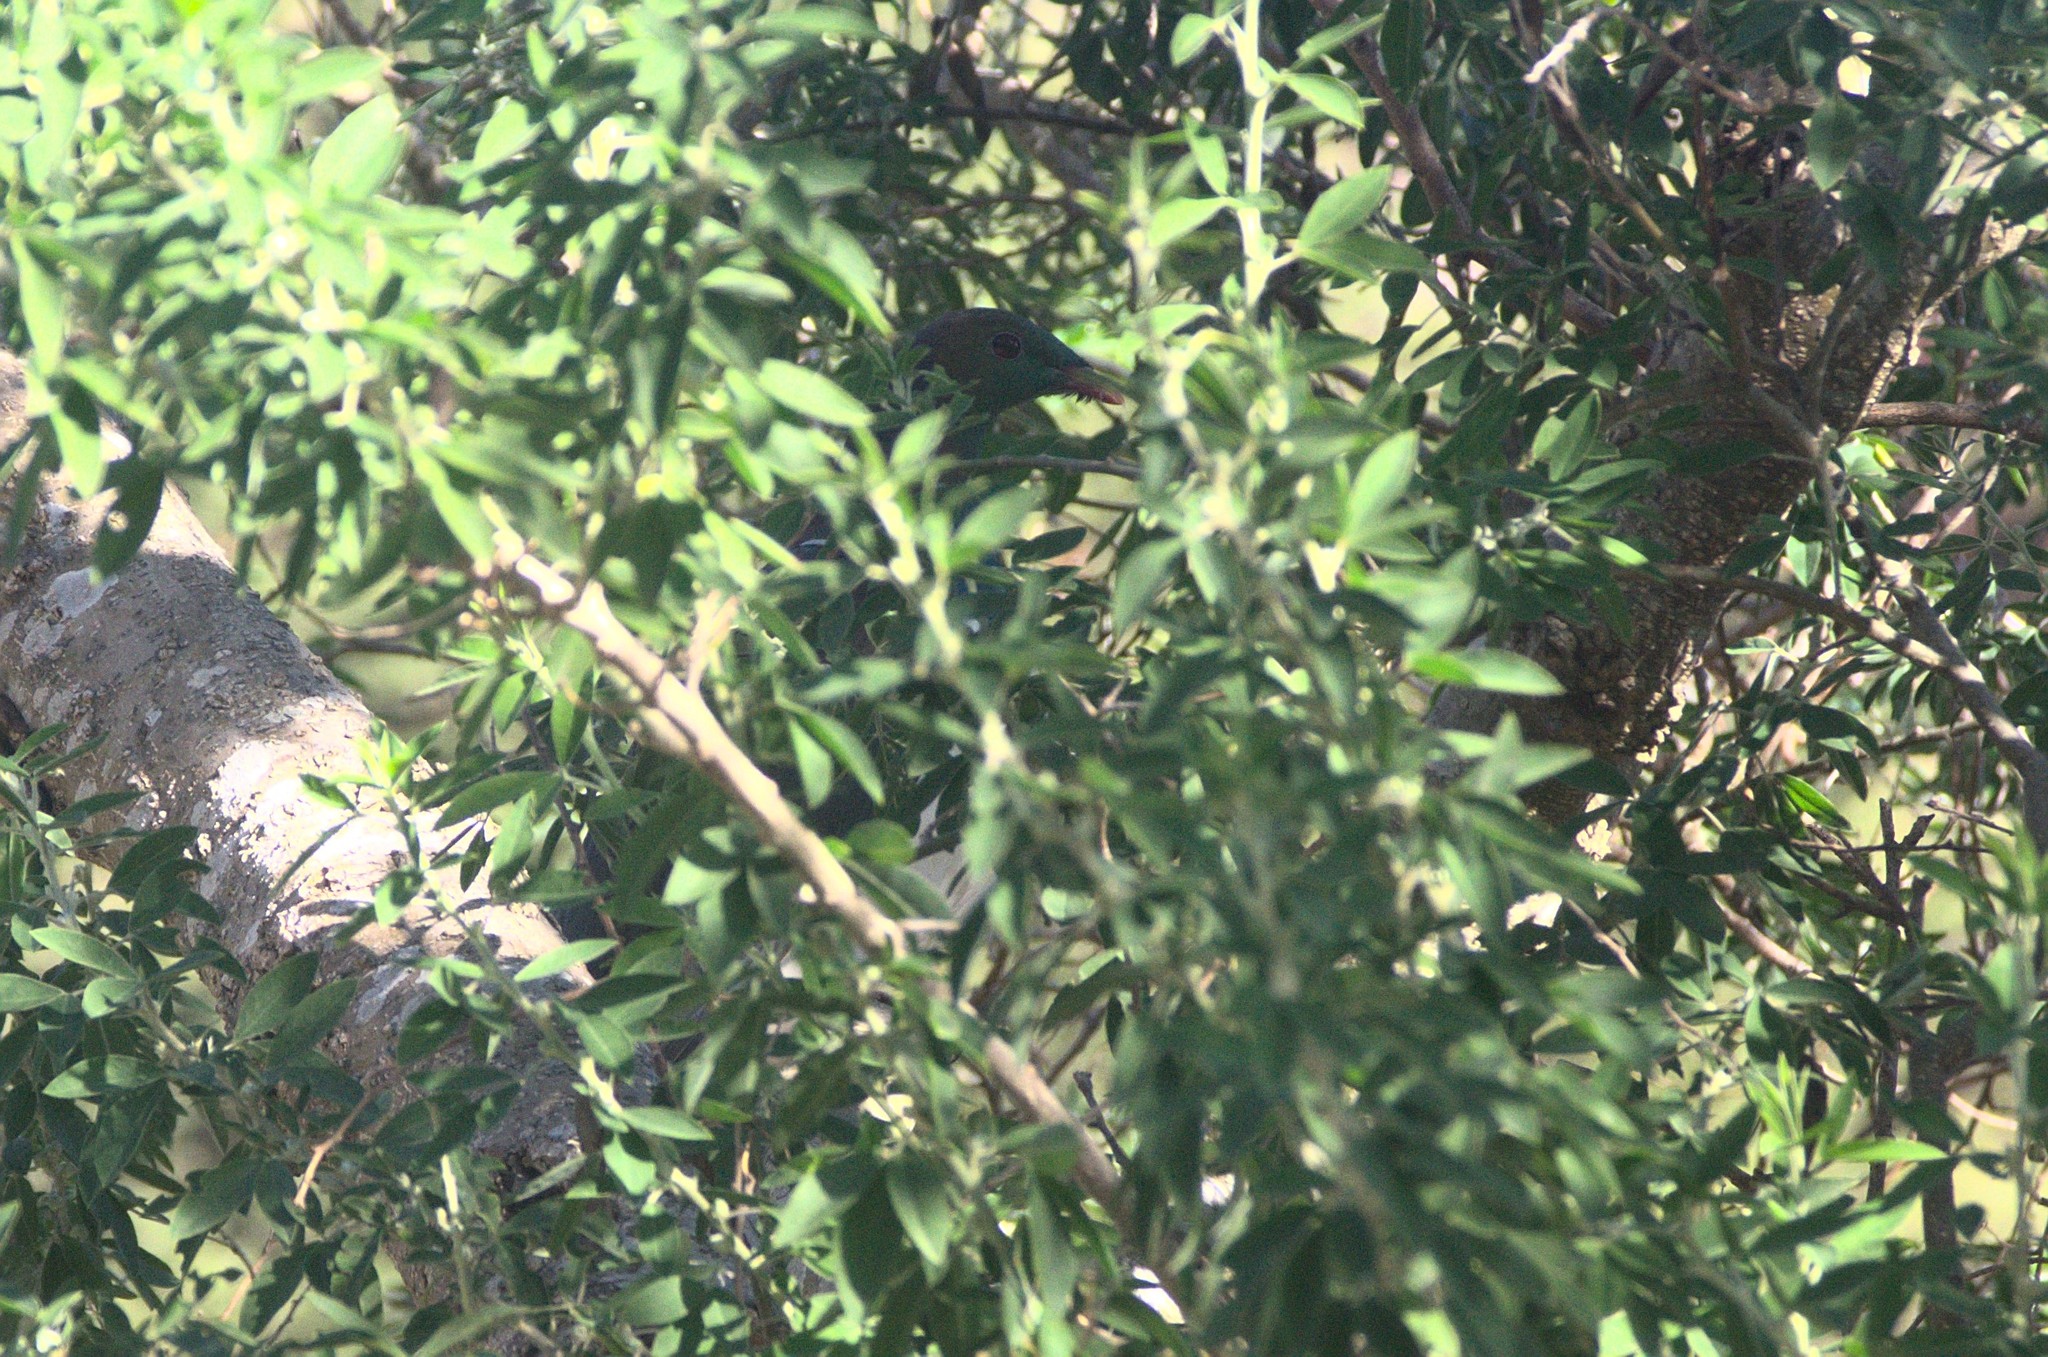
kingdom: Animalia
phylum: Chordata
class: Aves
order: Columbiformes
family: Columbidae
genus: Hemiphaga
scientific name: Hemiphaga novaeseelandiae
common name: New zealand pigeon
